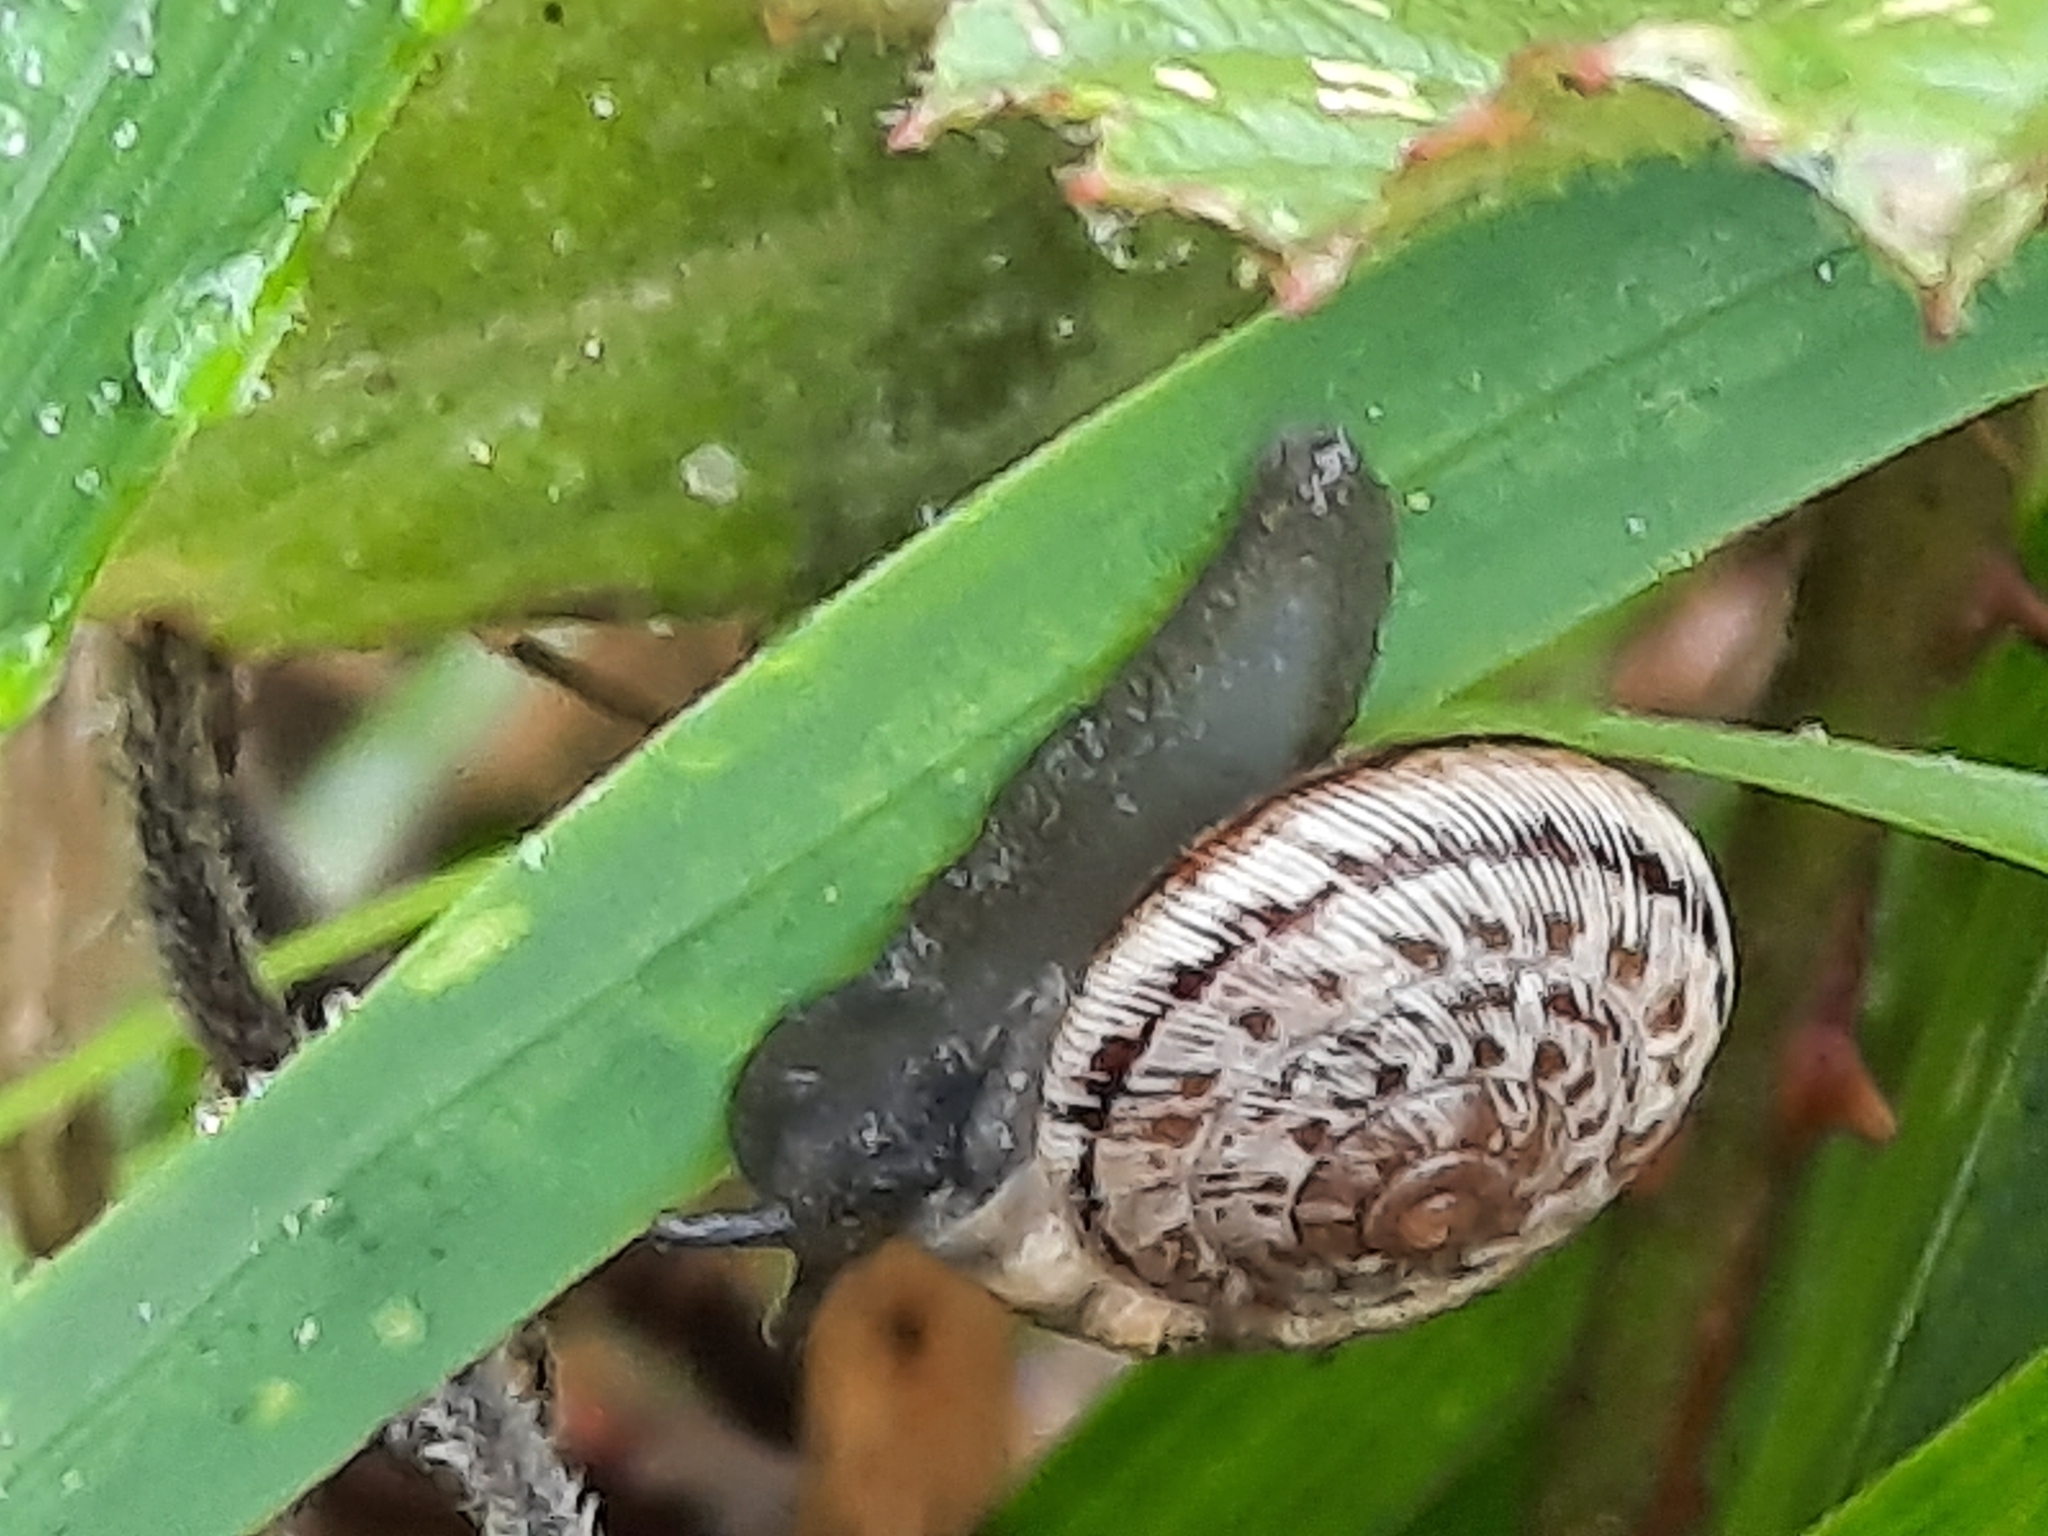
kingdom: Animalia
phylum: Mollusca
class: Gastropoda
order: Stylommatophora
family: Geomitridae
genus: Xeroplexa
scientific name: Xeroplexa intersecta
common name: Wrinkled snail
